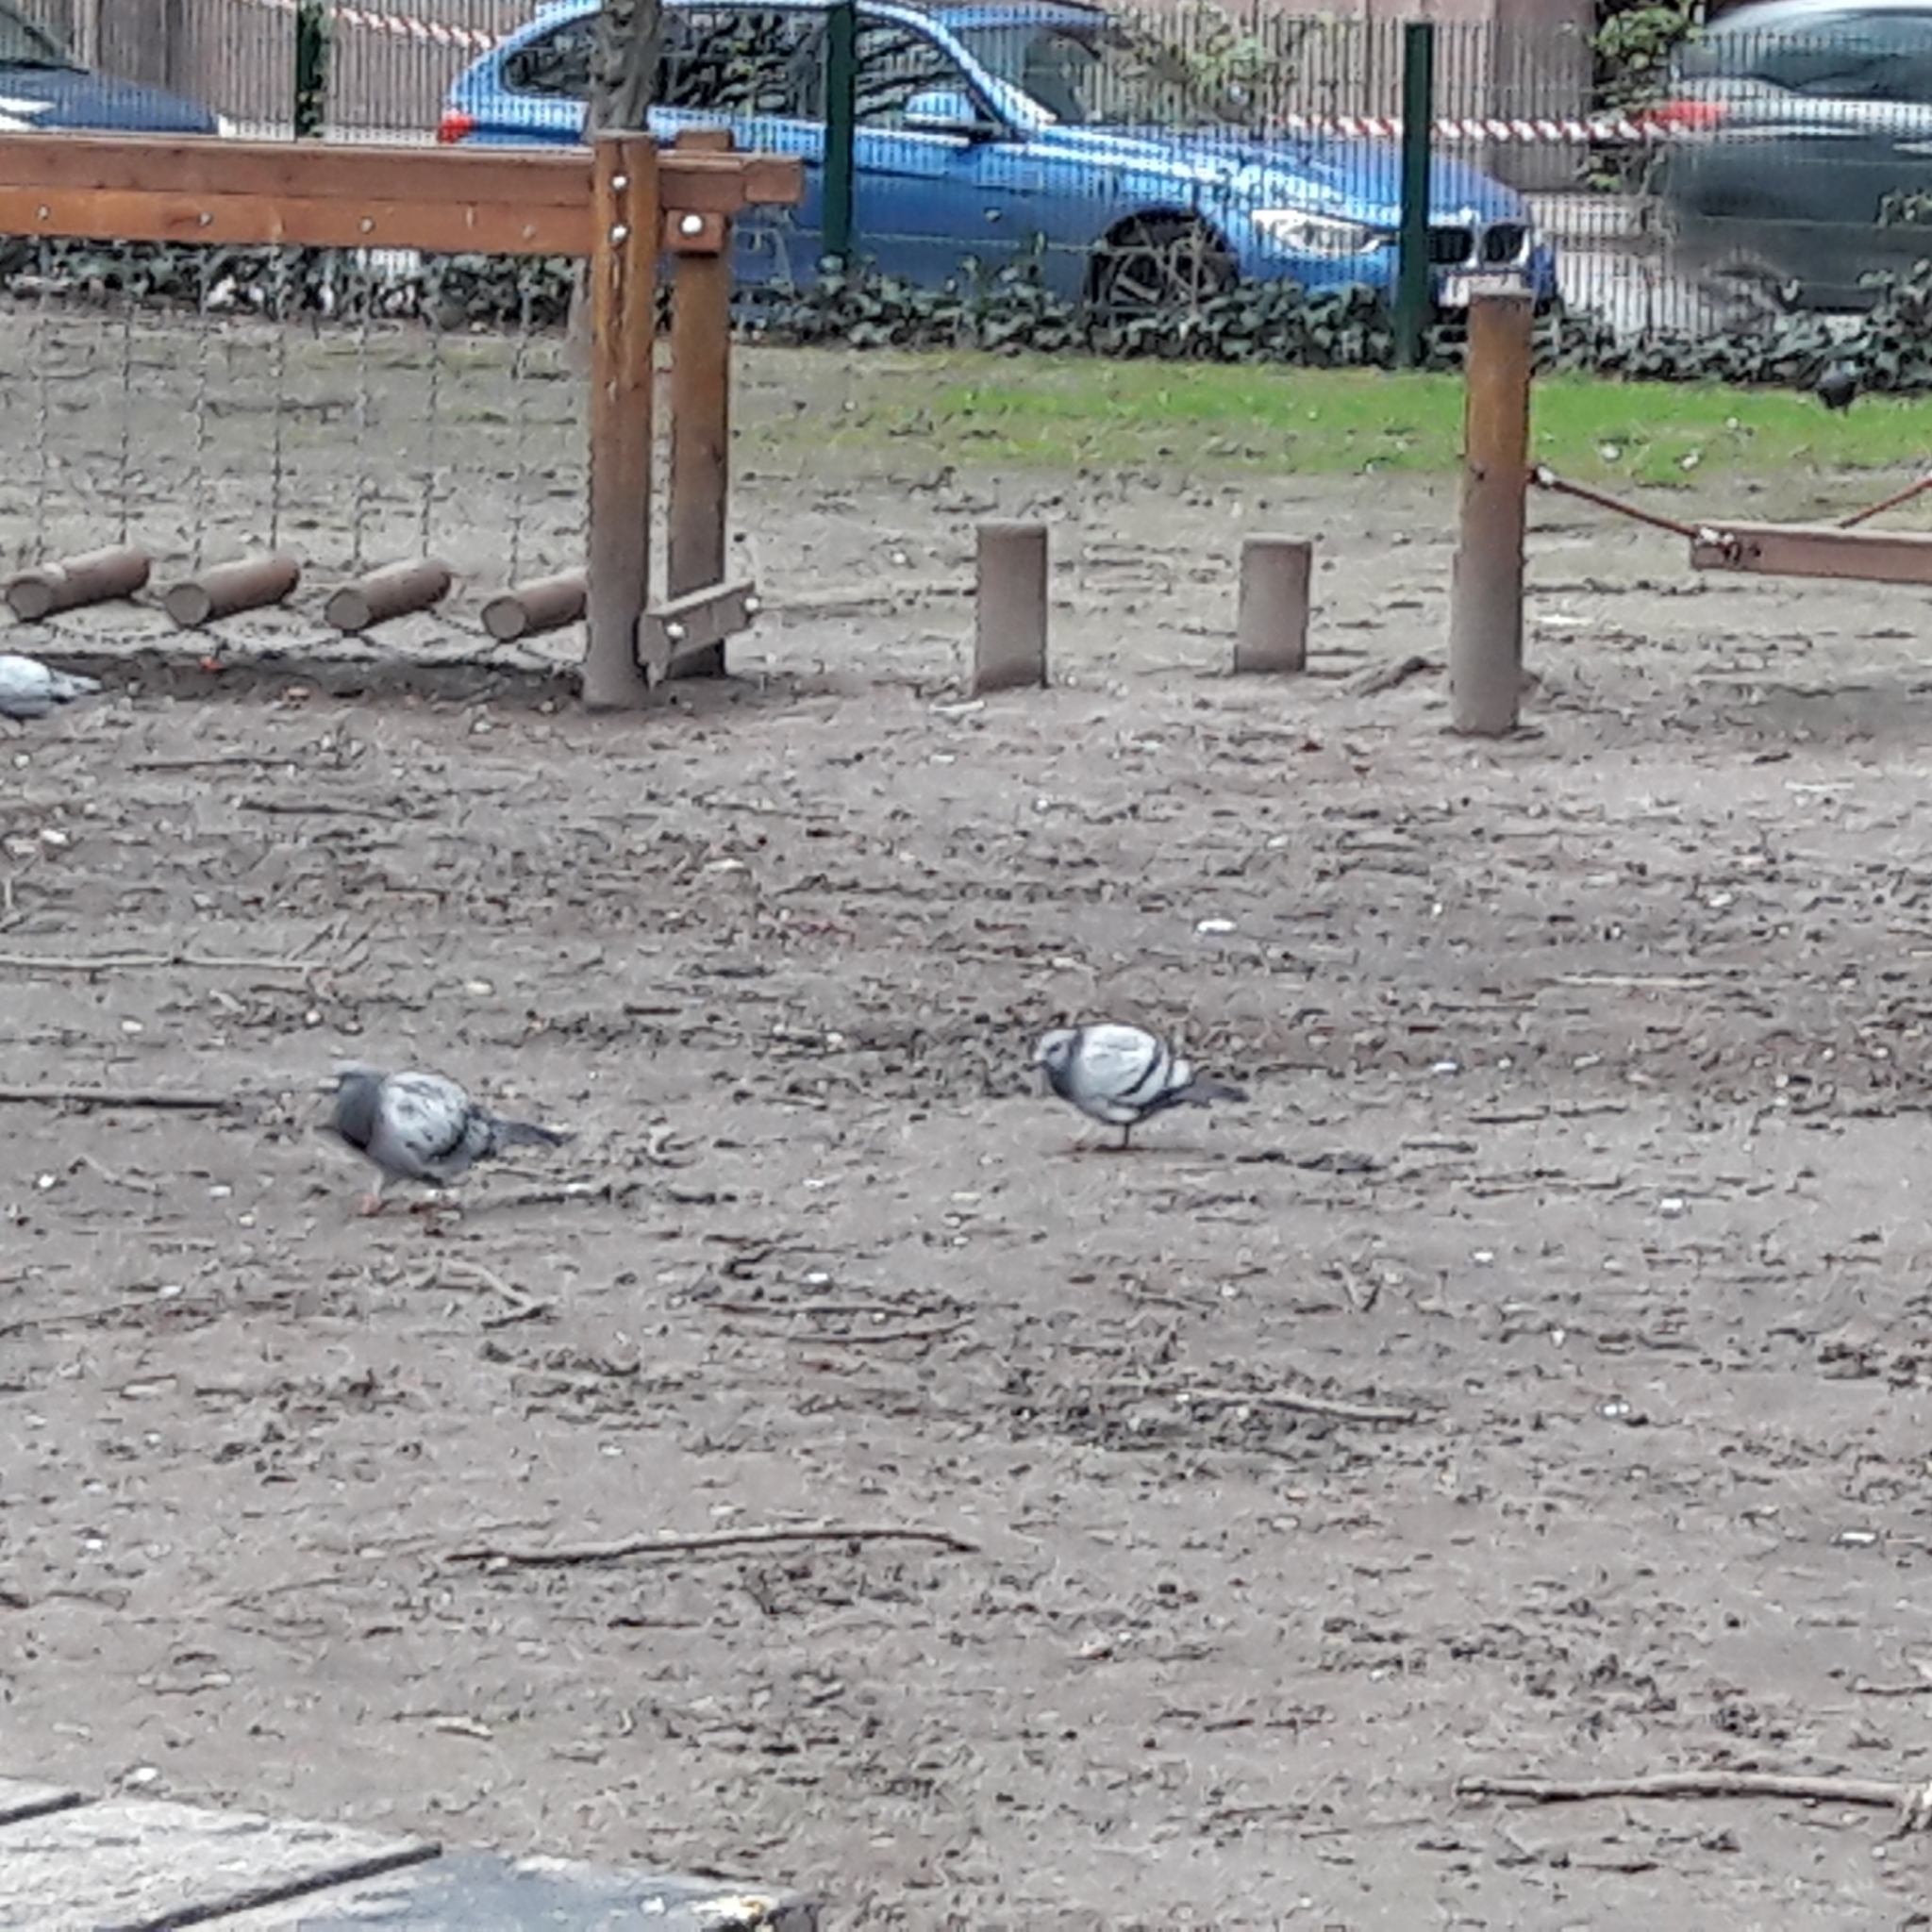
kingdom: Animalia
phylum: Chordata
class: Aves
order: Columbiformes
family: Columbidae
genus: Columba
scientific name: Columba livia
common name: Rock pigeon
